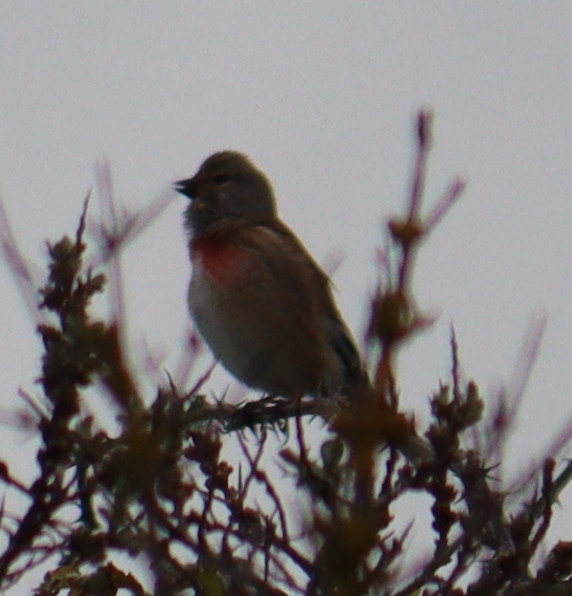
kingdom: Animalia
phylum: Chordata
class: Aves
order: Passeriformes
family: Fringillidae
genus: Linaria
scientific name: Linaria cannabina
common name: Common linnet
